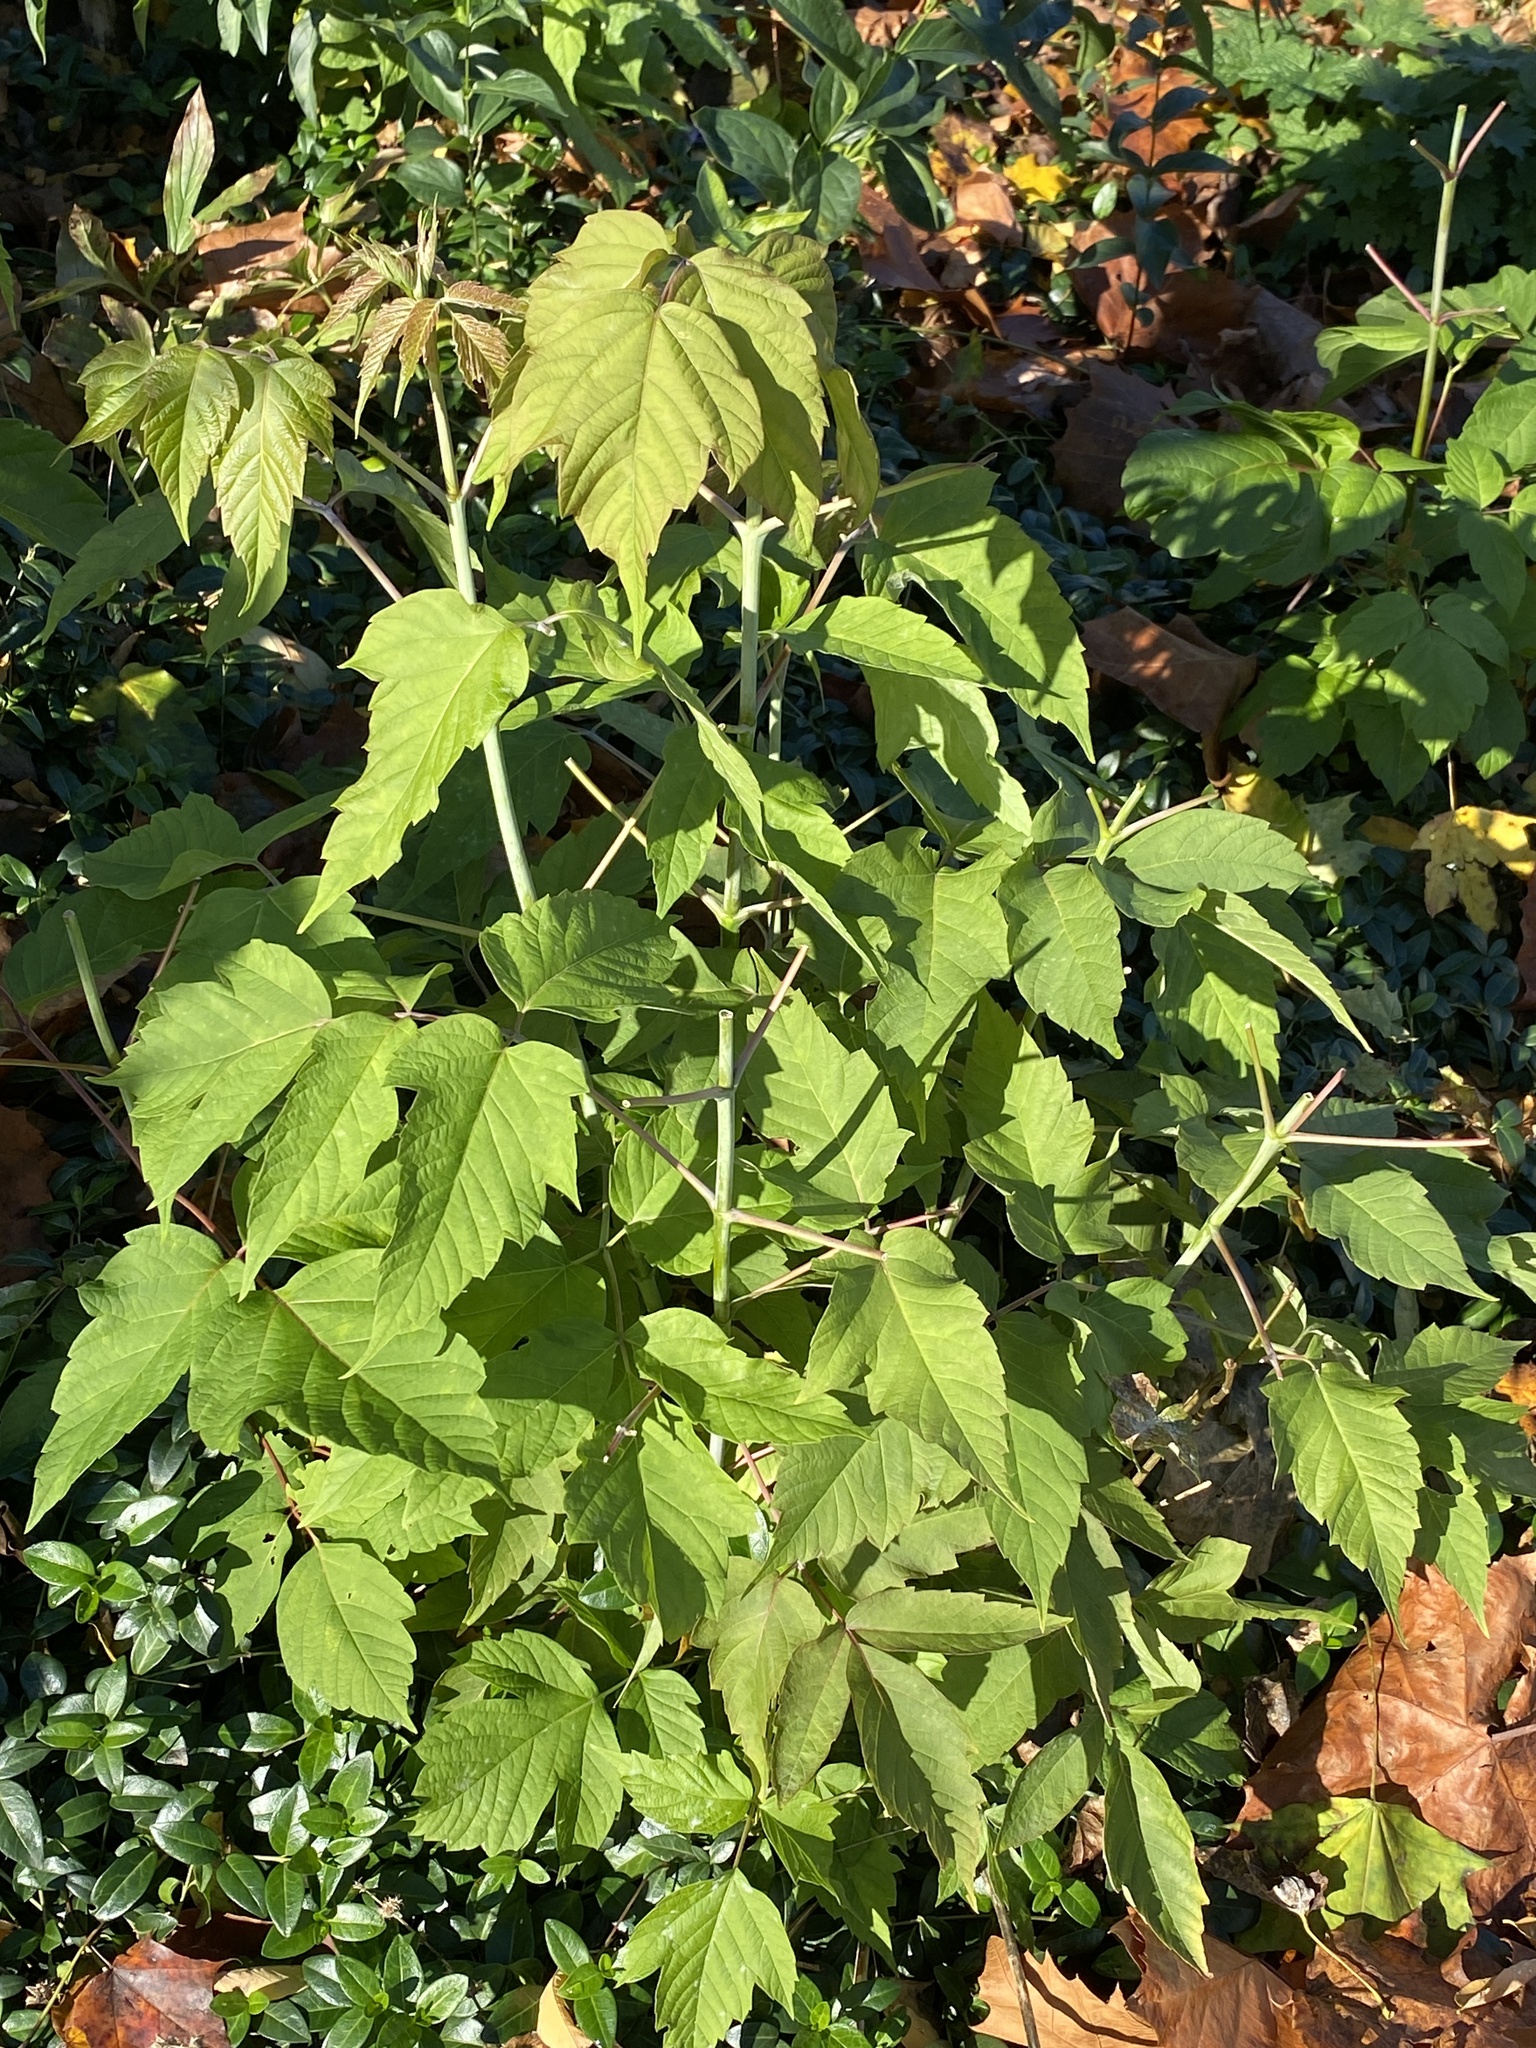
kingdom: Plantae
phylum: Tracheophyta
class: Magnoliopsida
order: Sapindales
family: Sapindaceae
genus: Acer
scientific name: Acer negundo
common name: Ashleaf maple
